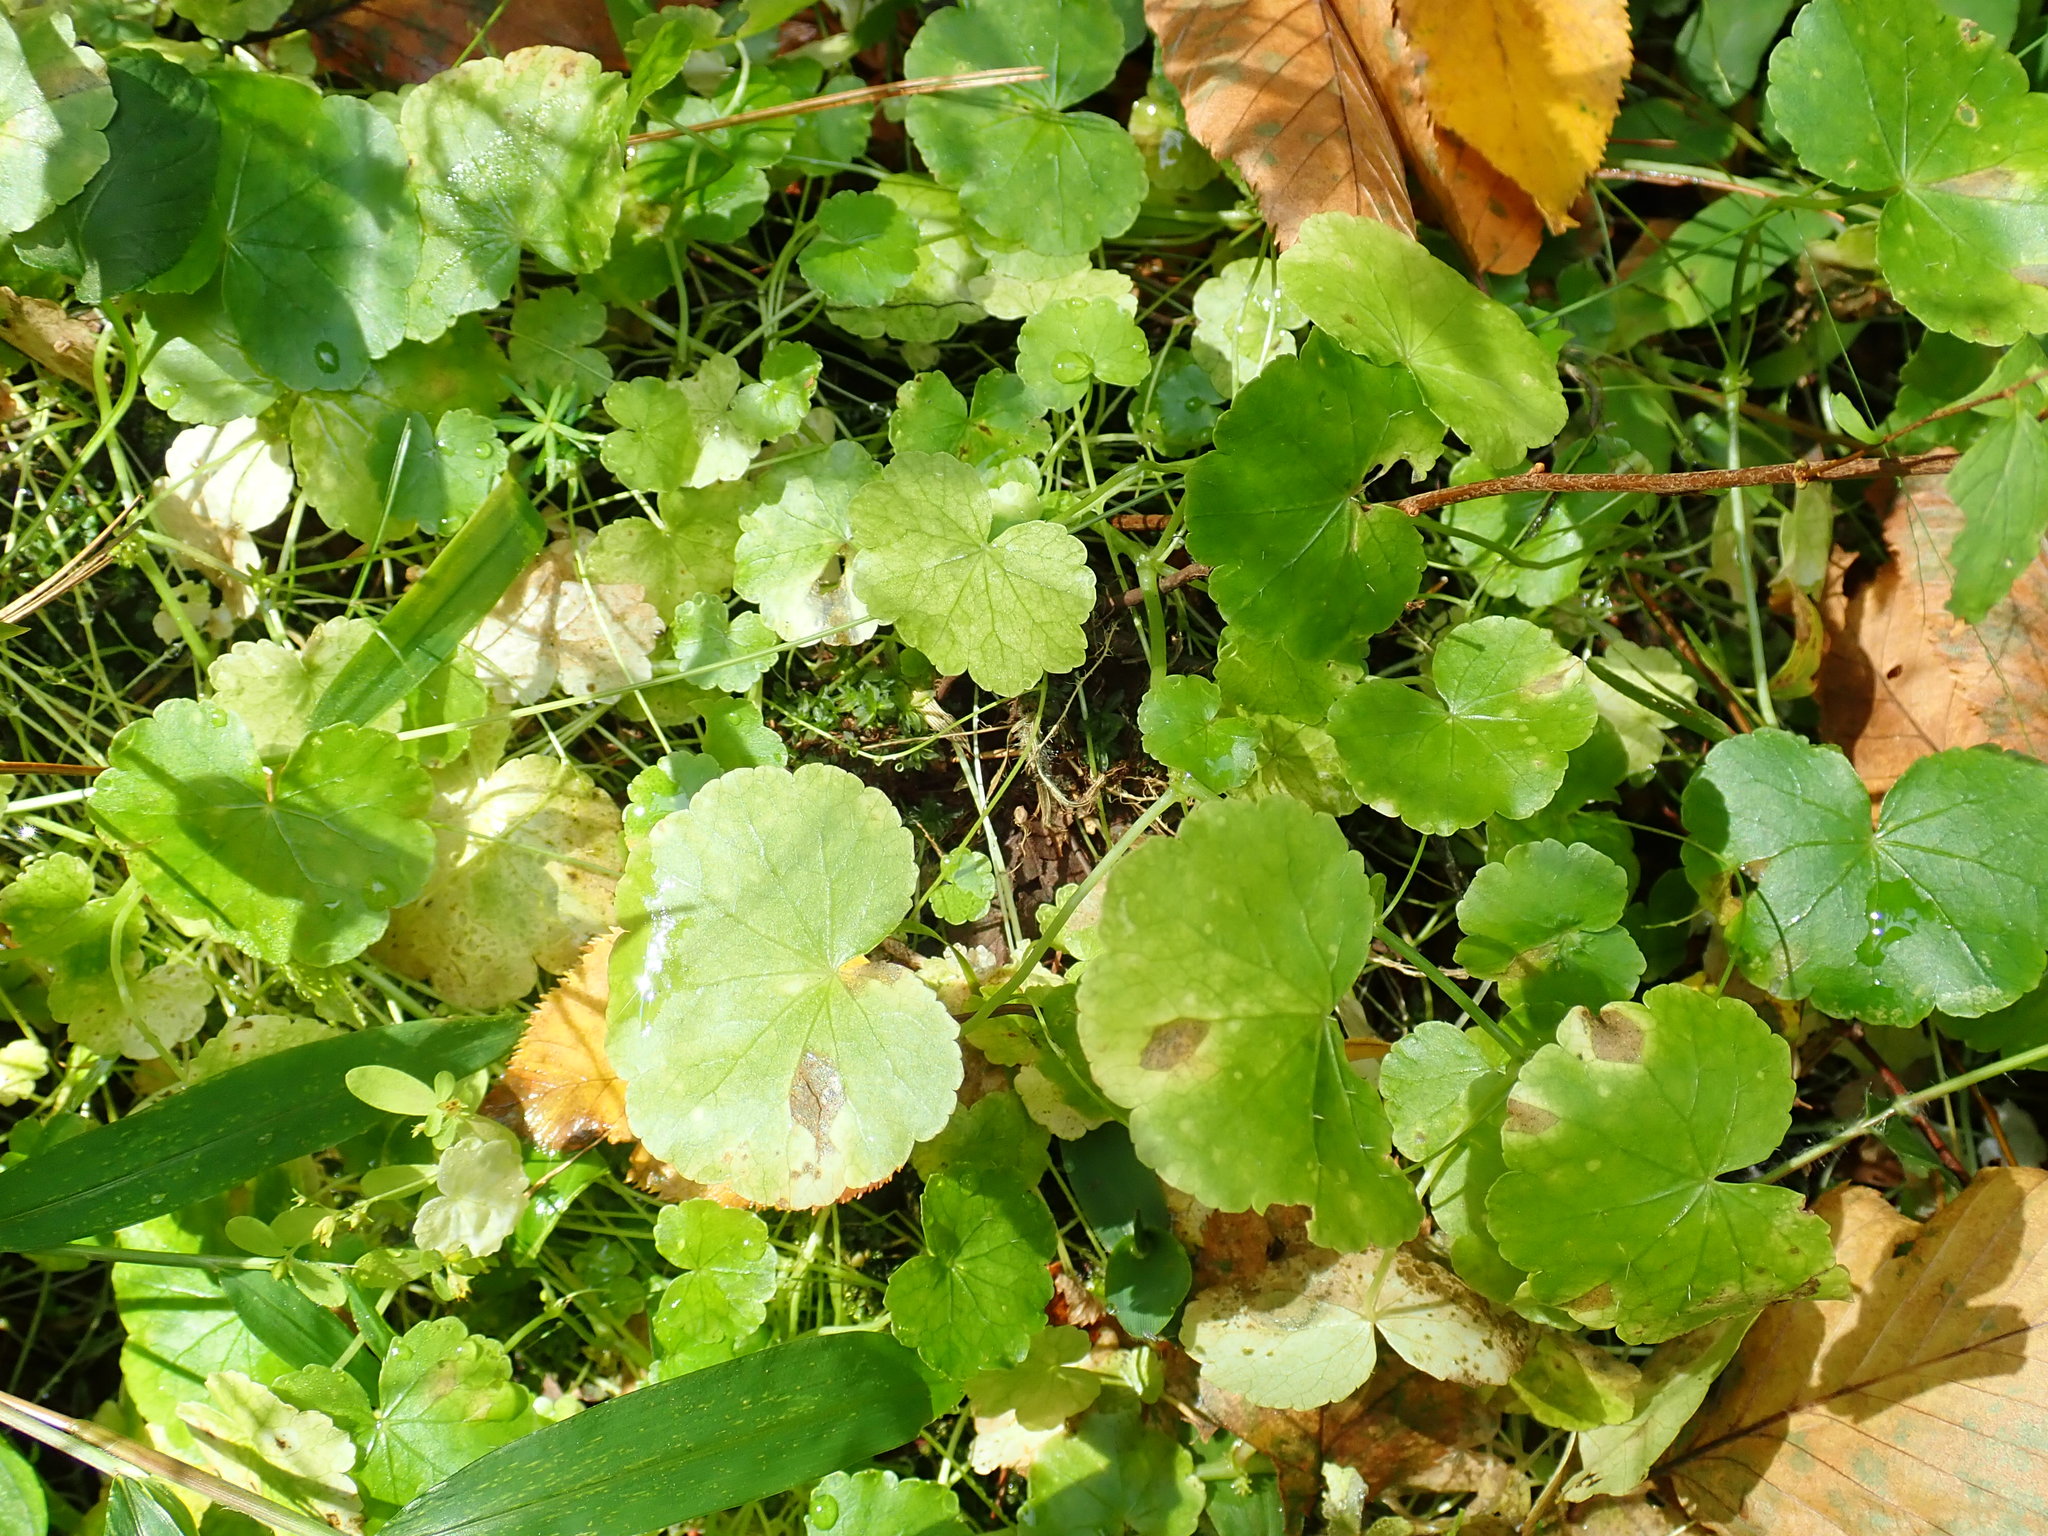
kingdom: Plantae
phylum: Tracheophyta
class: Magnoliopsida
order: Apiales
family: Araliaceae
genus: Hydrocotyle
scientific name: Hydrocotyle americana
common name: American water-pennywort
